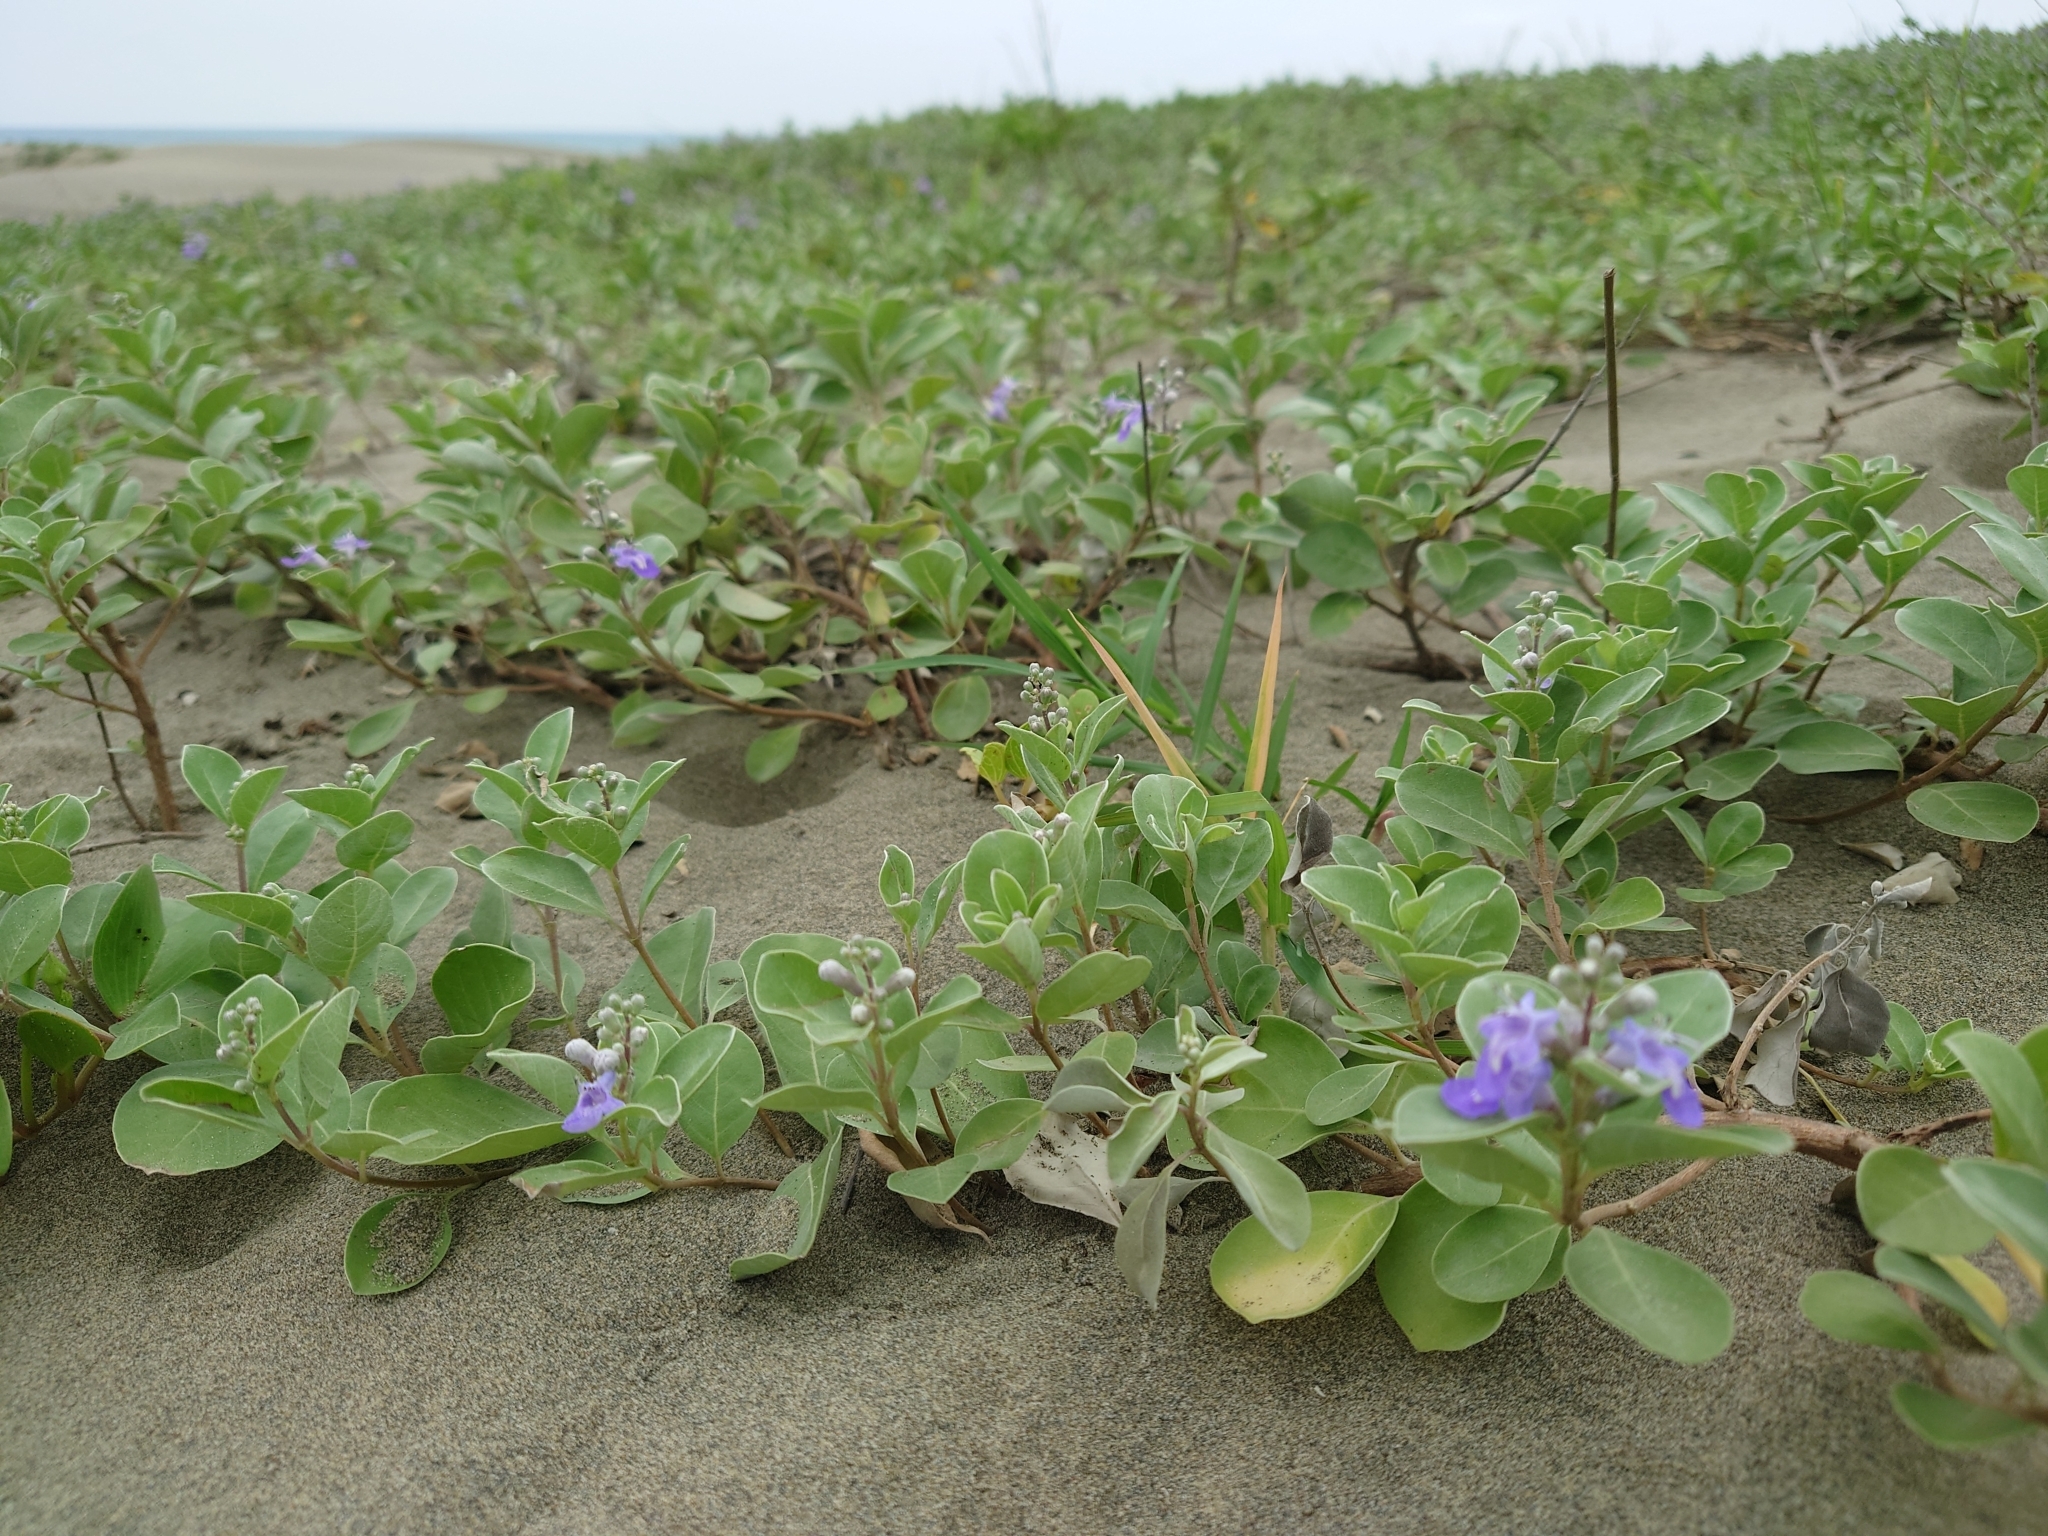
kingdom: Plantae
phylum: Tracheophyta
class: Magnoliopsida
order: Lamiales
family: Lamiaceae
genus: Vitex
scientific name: Vitex rotundifolia
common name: Beach vitex
